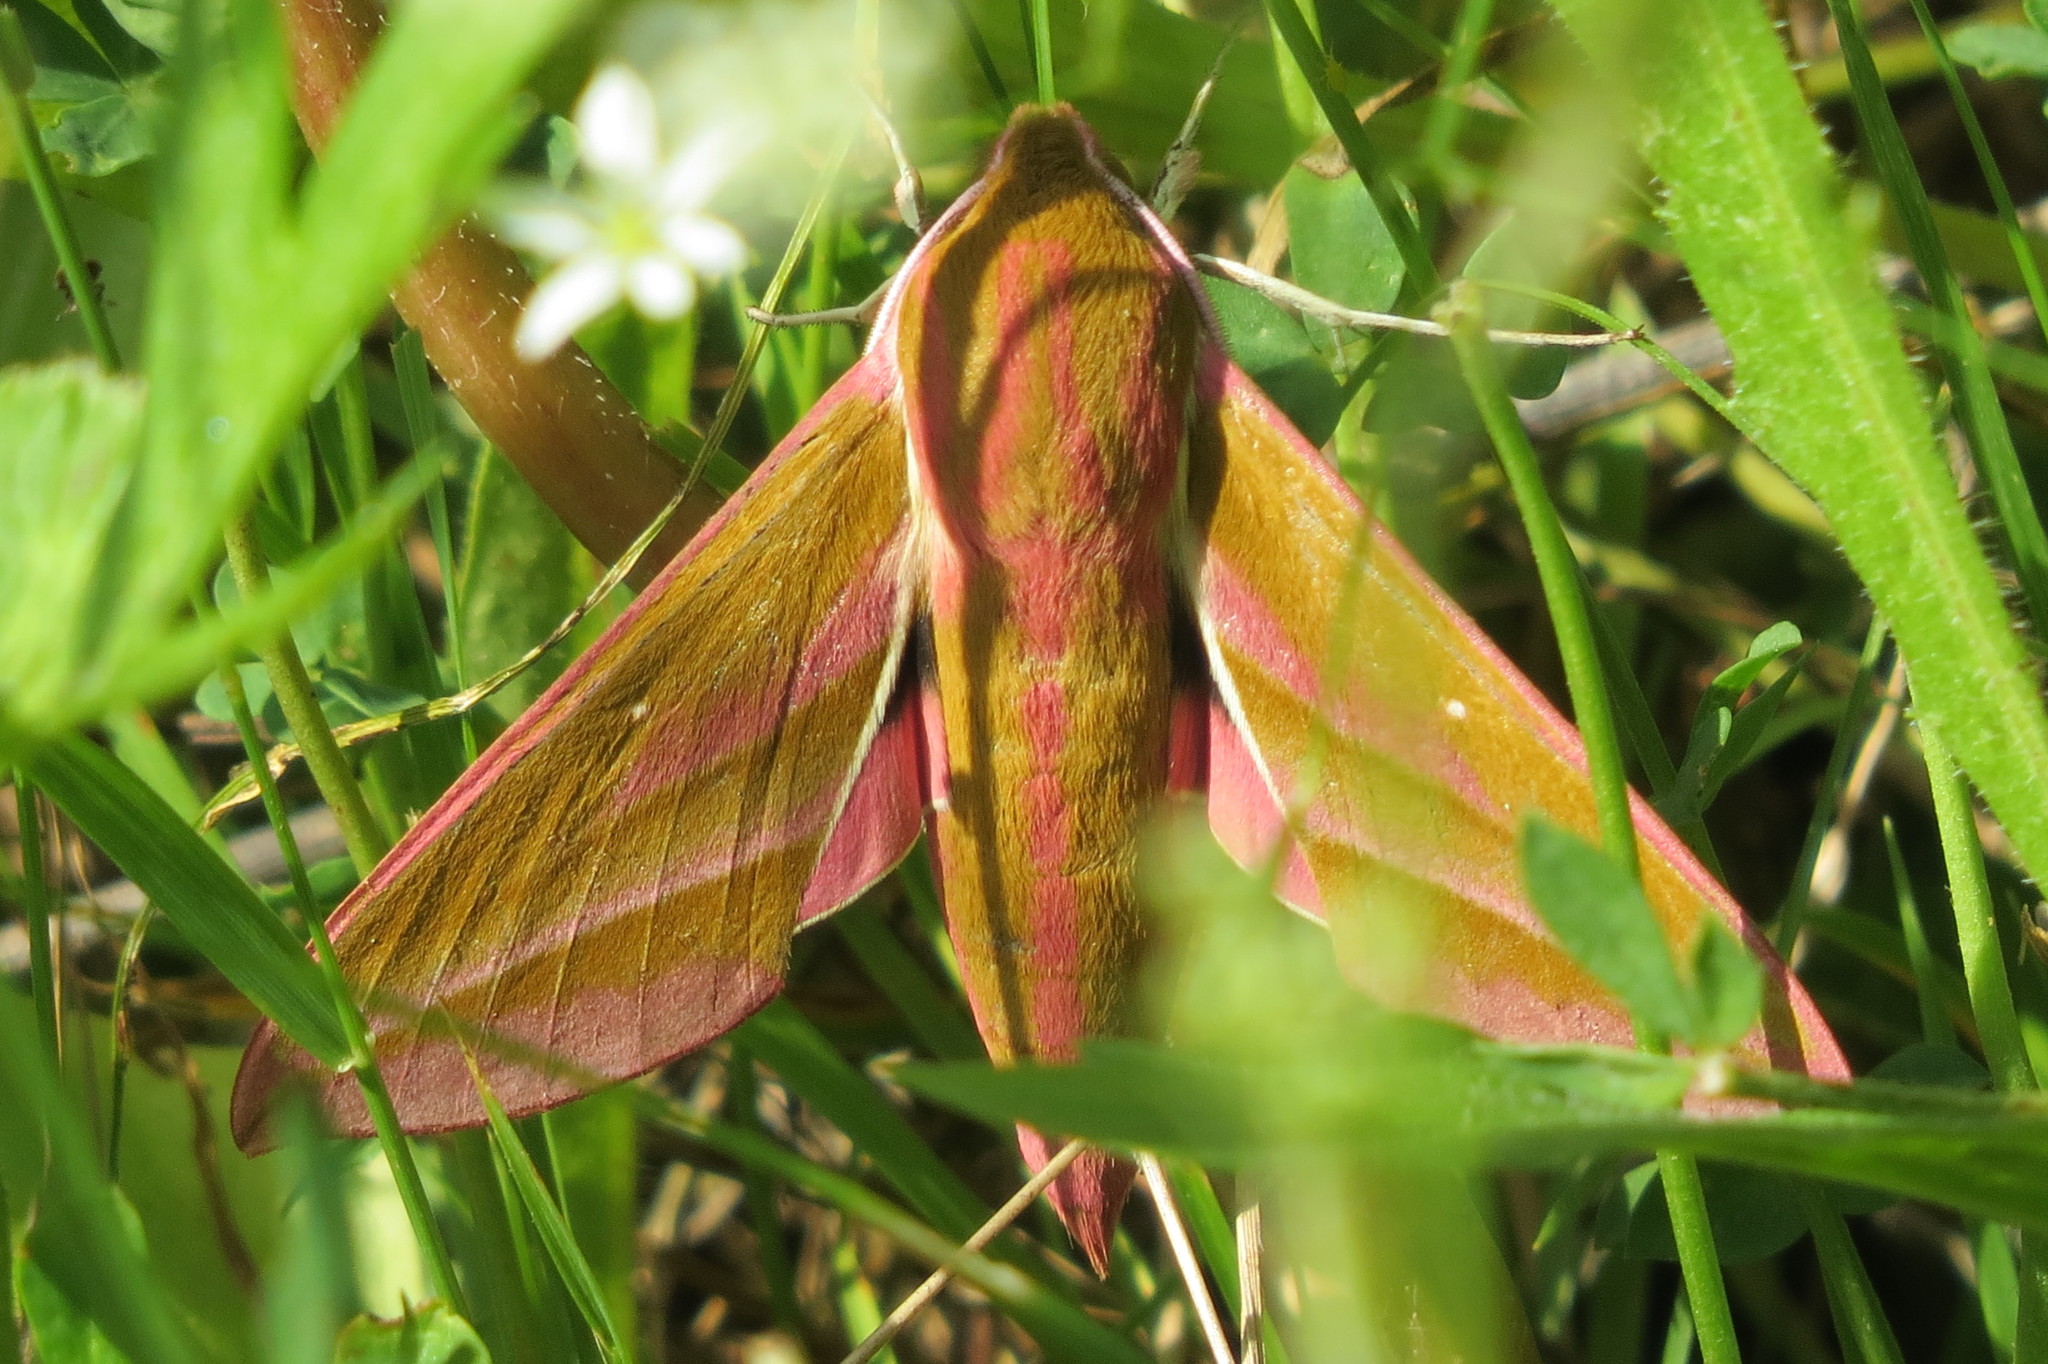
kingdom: Animalia
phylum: Arthropoda
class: Insecta
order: Lepidoptera
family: Sphingidae
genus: Deilephila
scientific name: Deilephila elpenor
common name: Elephant hawk-moth
